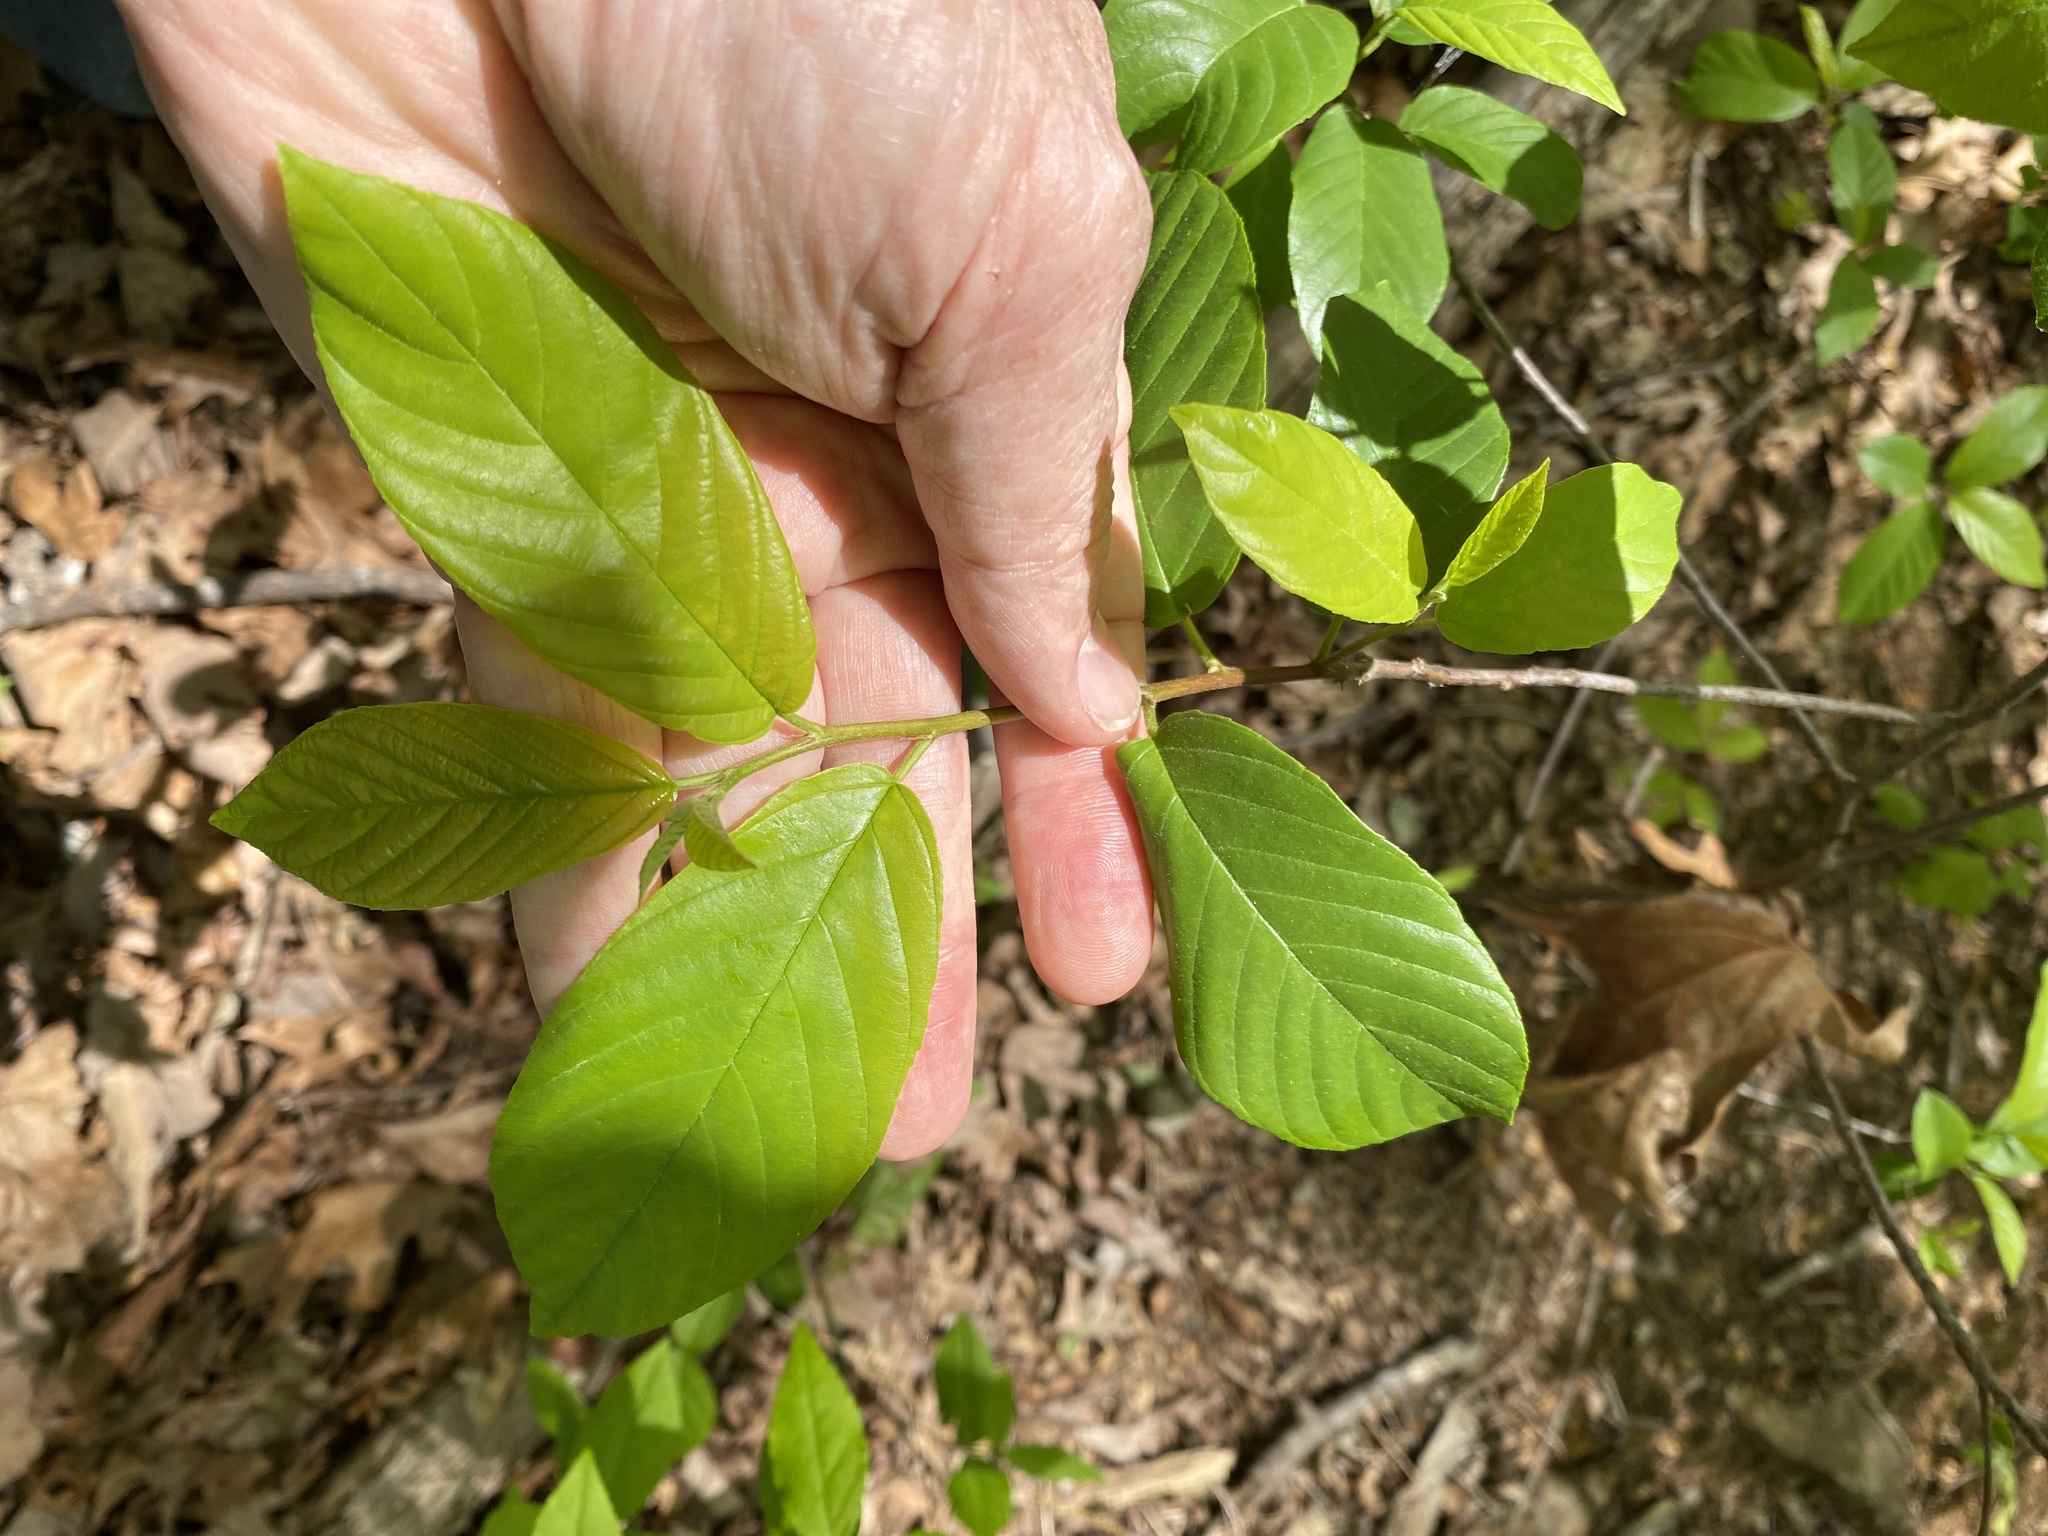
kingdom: Plantae
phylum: Tracheophyta
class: Magnoliopsida
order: Rosales
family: Rhamnaceae
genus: Frangula
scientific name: Frangula caroliniana
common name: Carolina buckthorn
